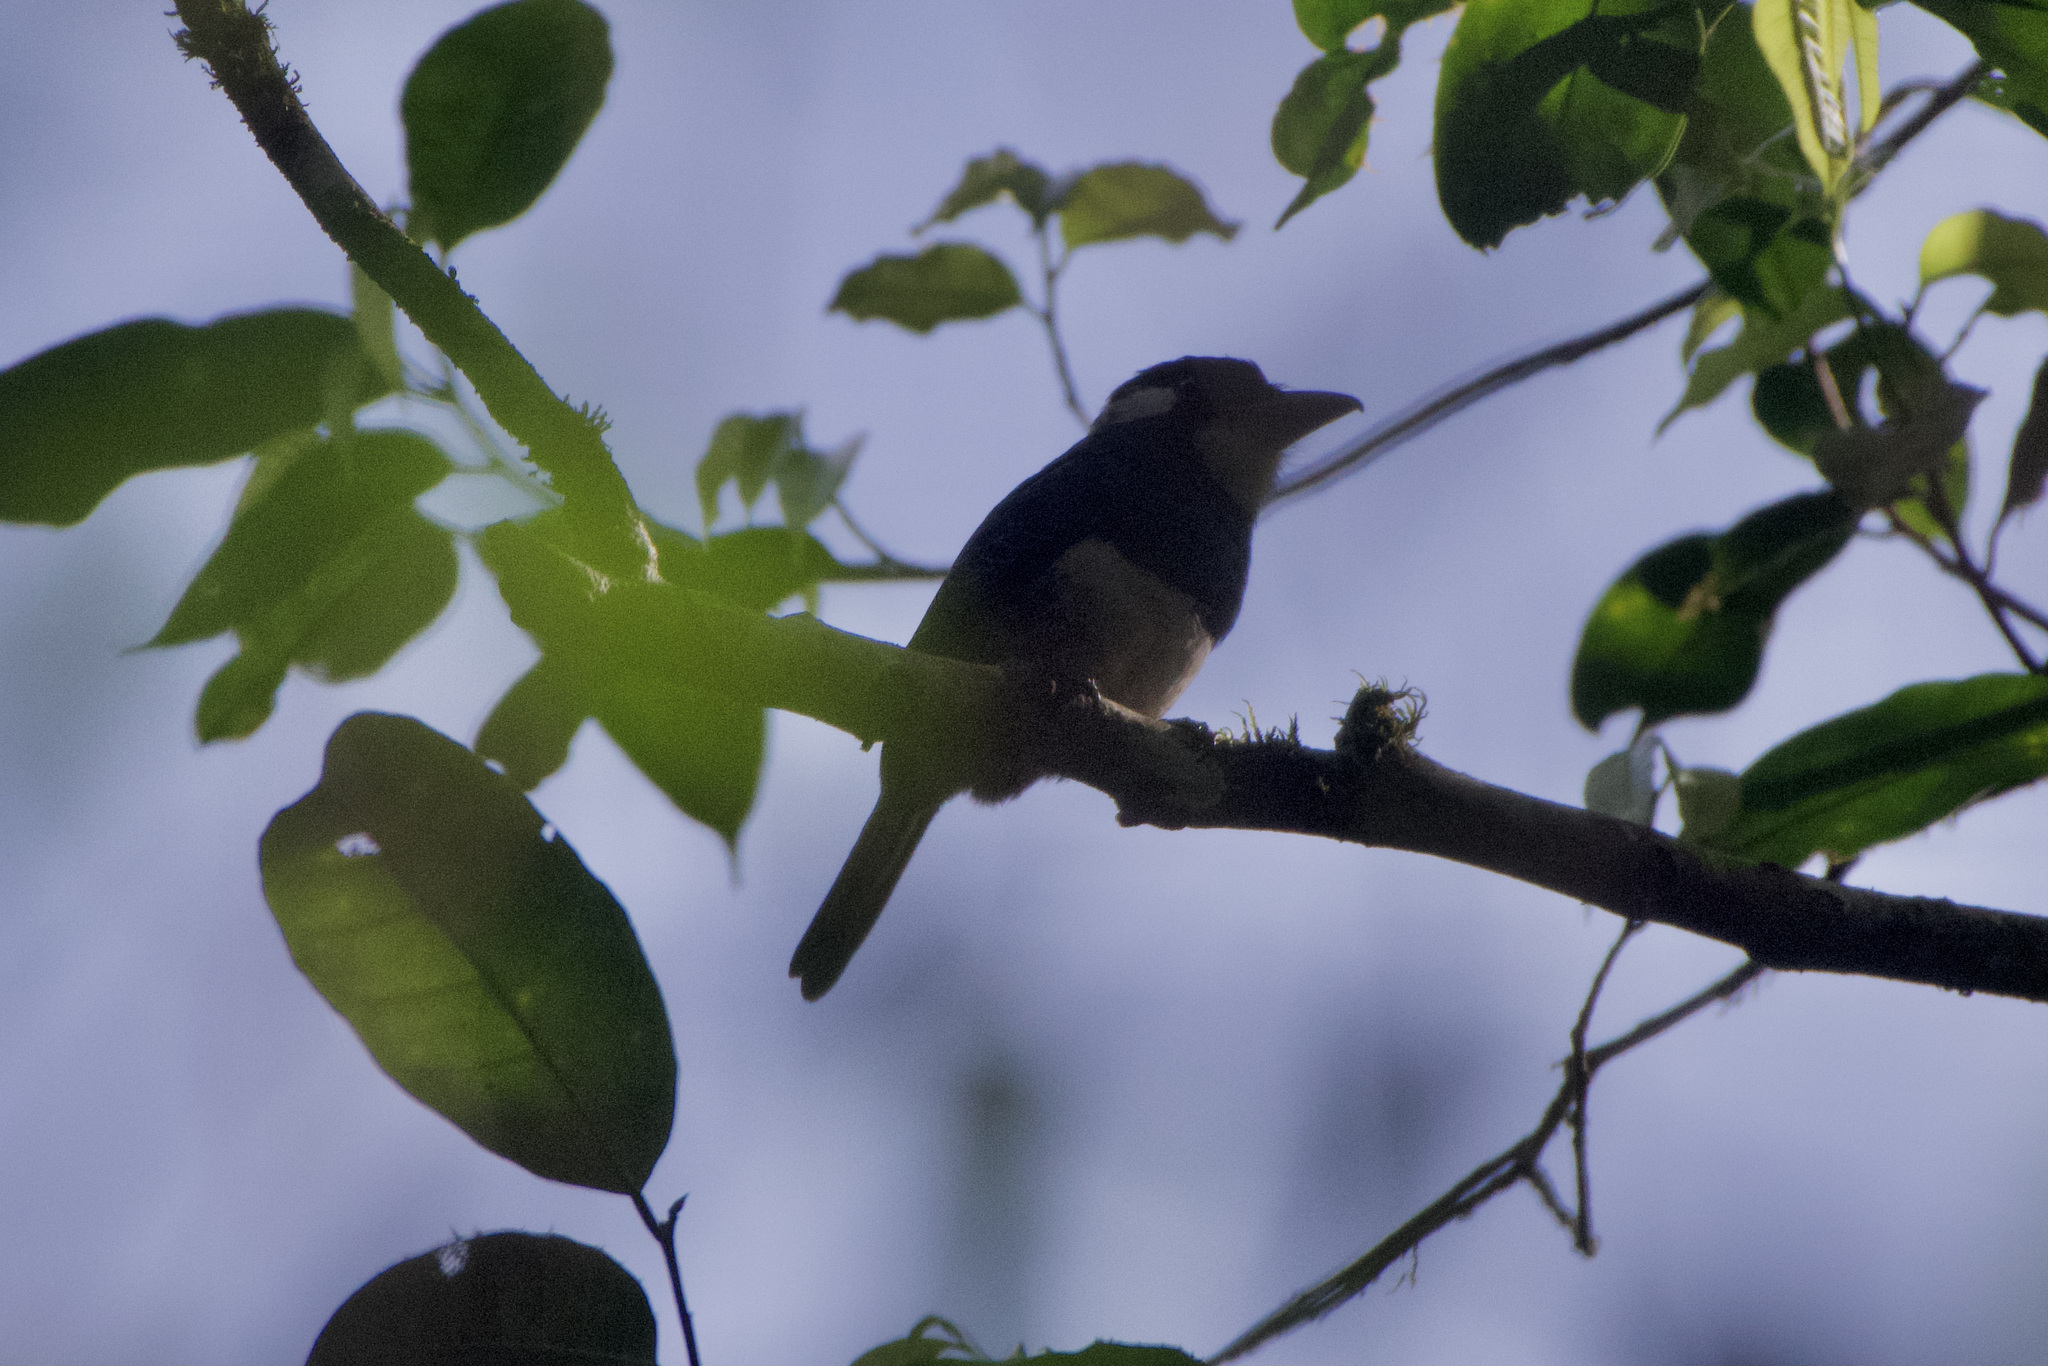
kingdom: Animalia
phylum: Chordata
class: Aves
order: Piciformes
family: Bucconidae
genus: Notharchus
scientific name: Notharchus pectoralis
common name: Black-breasted puffbird
